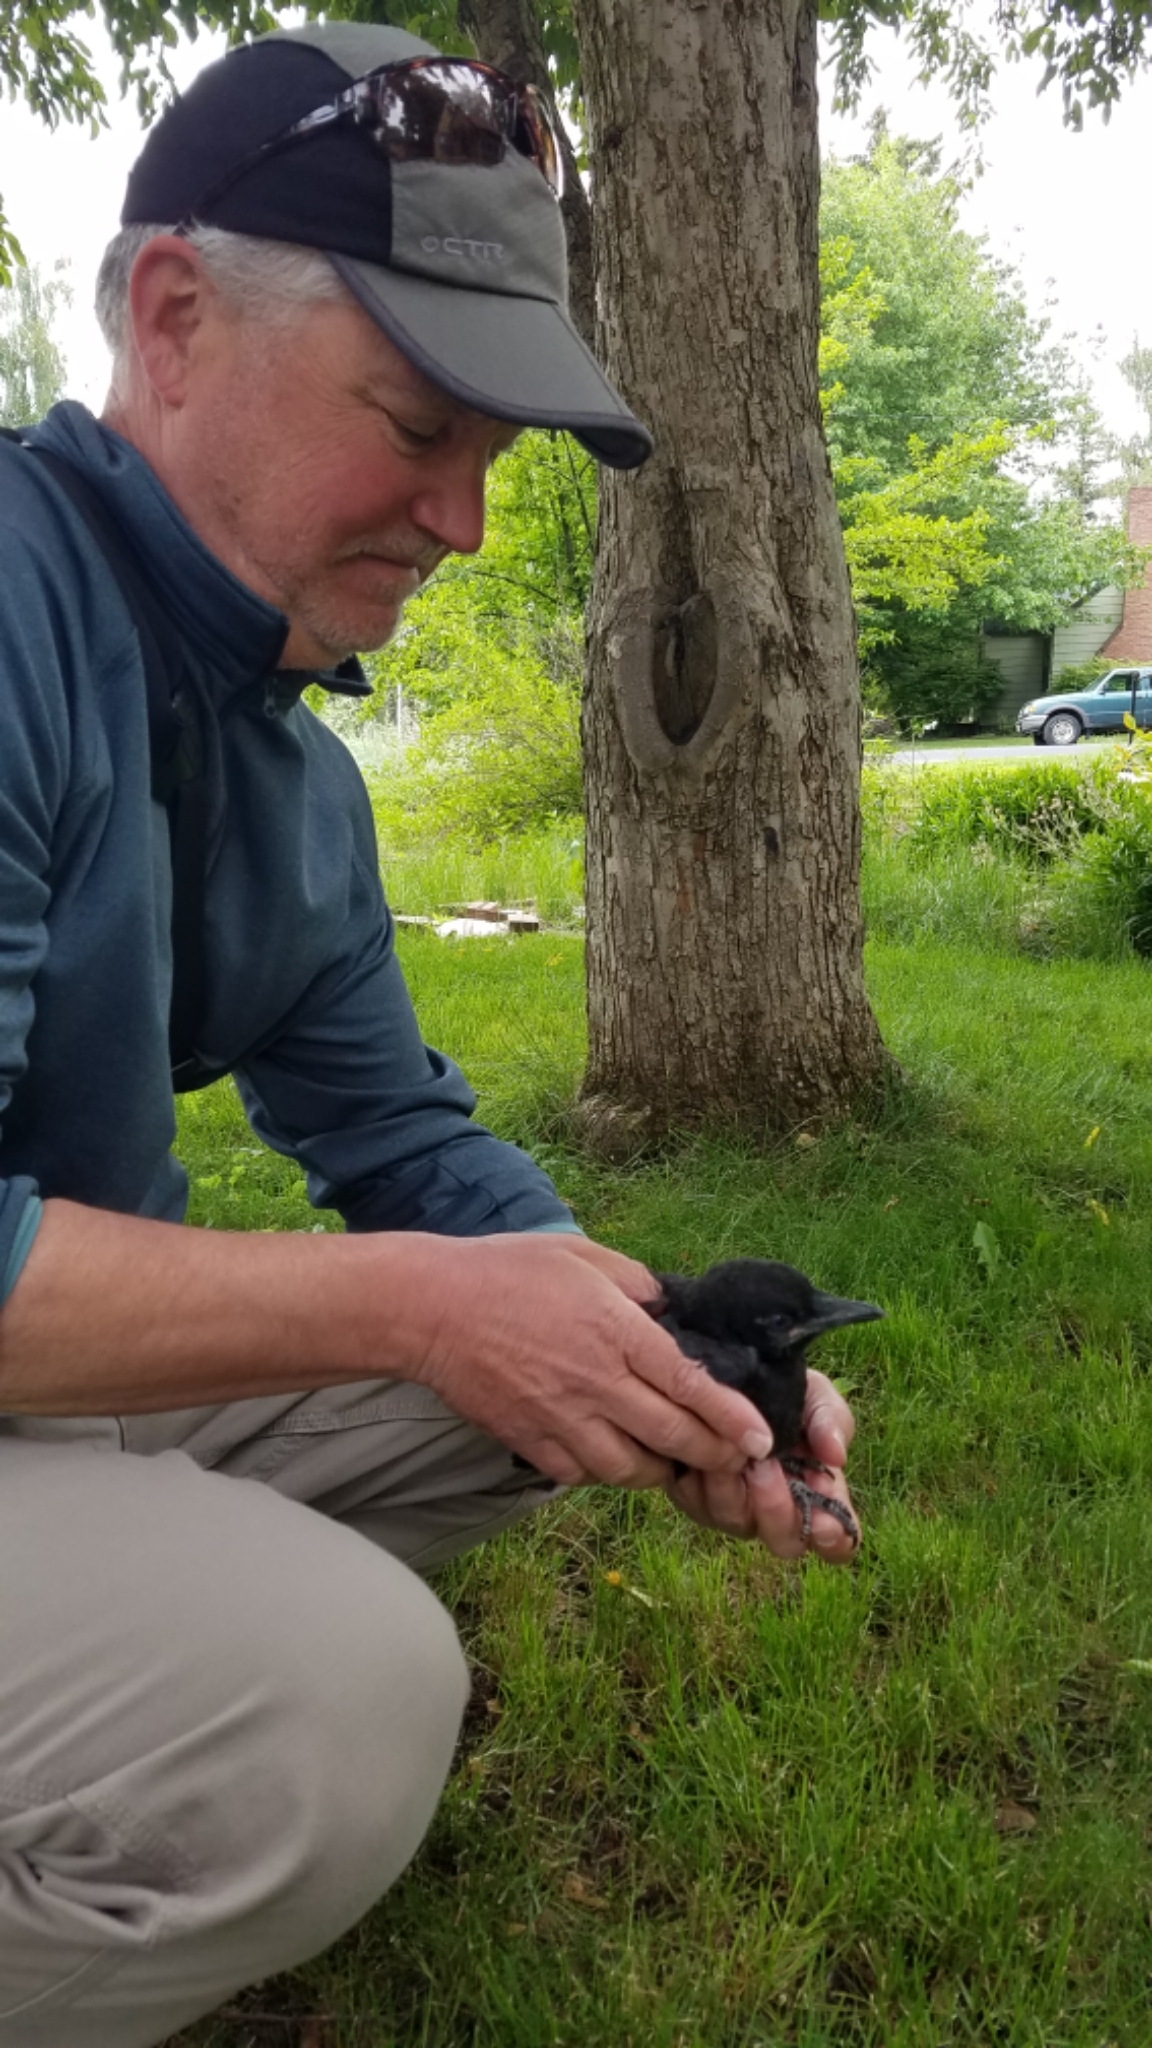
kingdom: Animalia
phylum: Chordata
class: Aves
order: Passeriformes
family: Corvidae
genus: Corvus
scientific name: Corvus brachyrhynchos
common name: American crow
